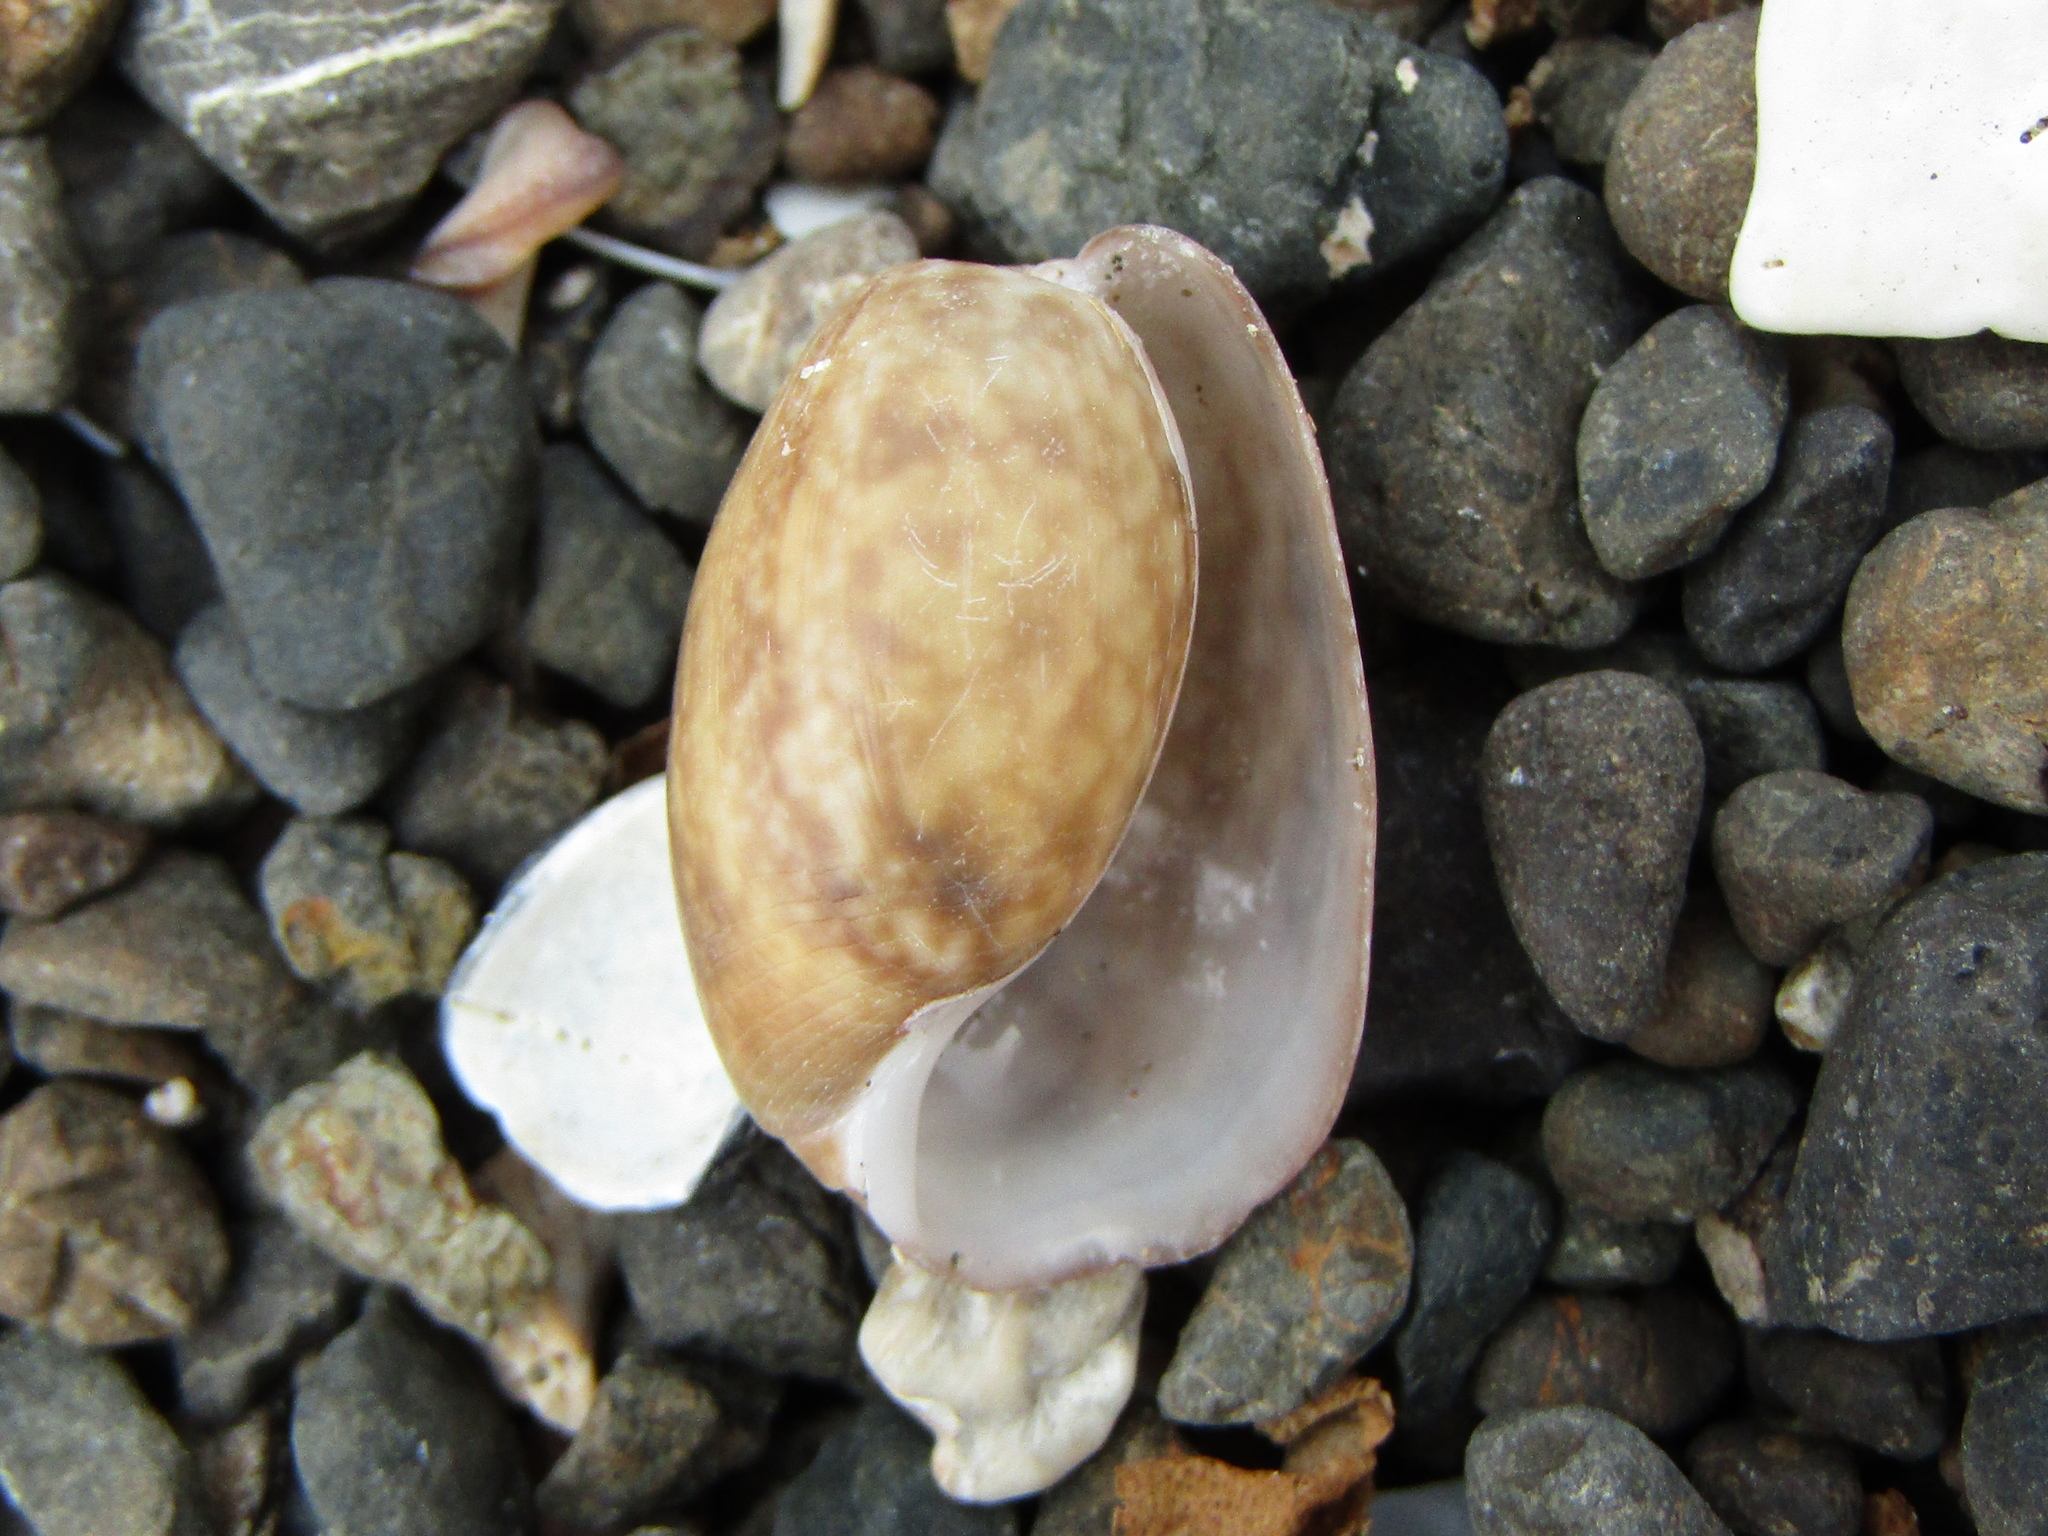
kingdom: Animalia
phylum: Mollusca
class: Gastropoda
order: Cephalaspidea
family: Bullidae
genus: Bulla
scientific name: Bulla quoyii
